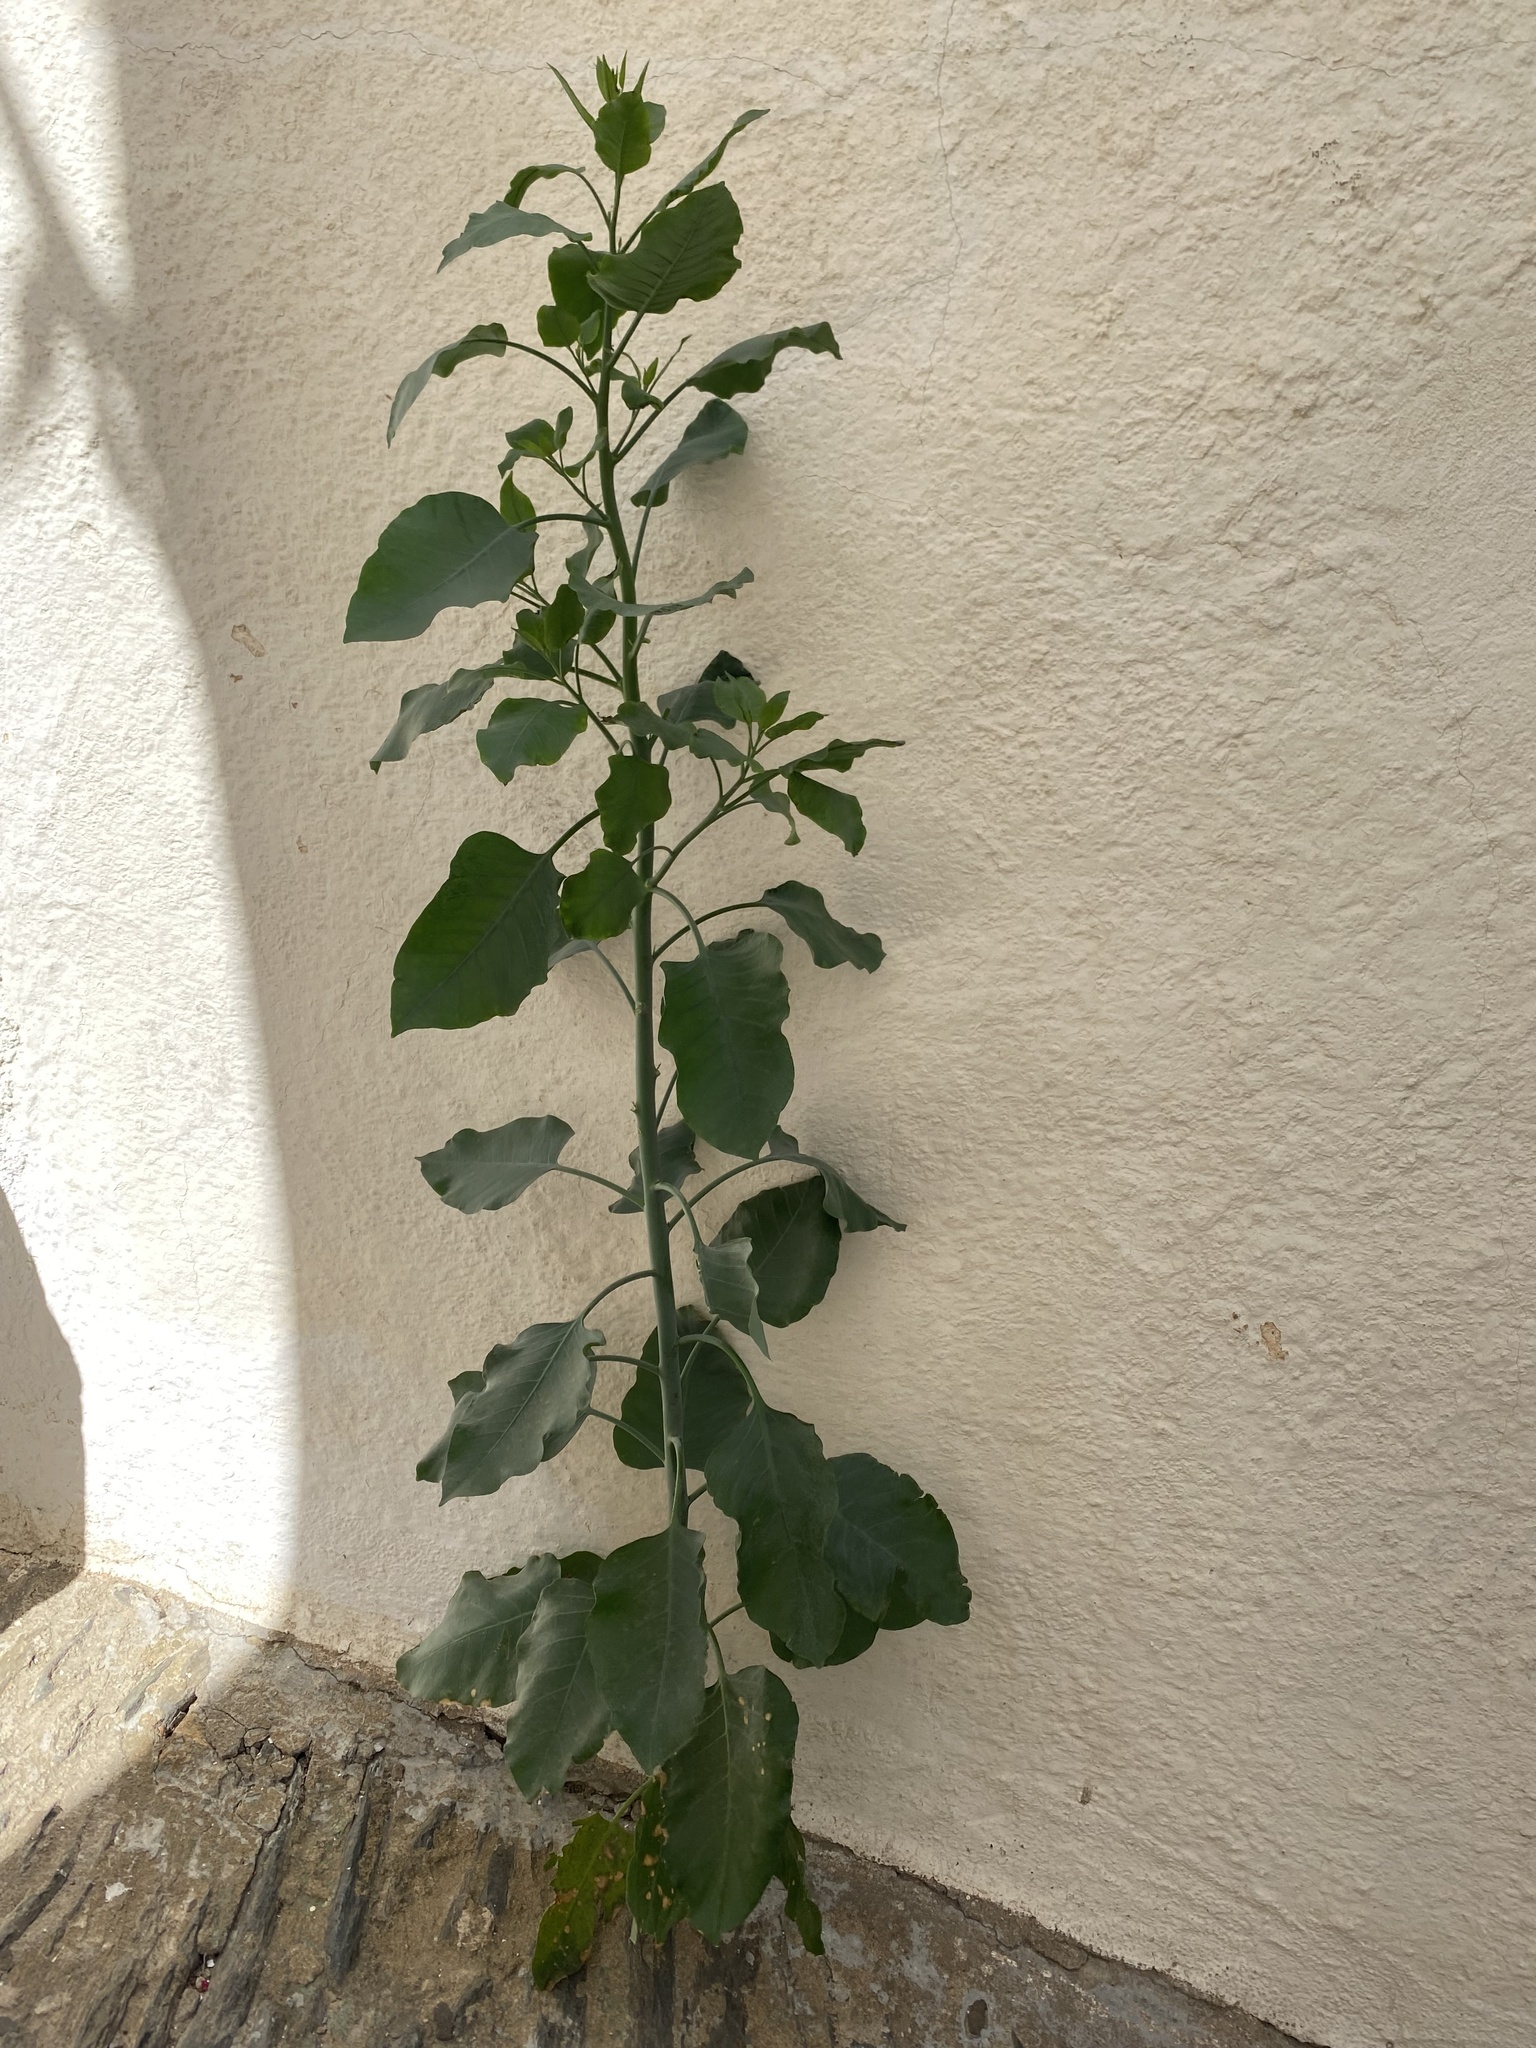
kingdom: Plantae
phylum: Tracheophyta
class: Magnoliopsida
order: Solanales
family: Solanaceae
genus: Nicotiana
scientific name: Nicotiana glauca
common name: Tree tobacco
